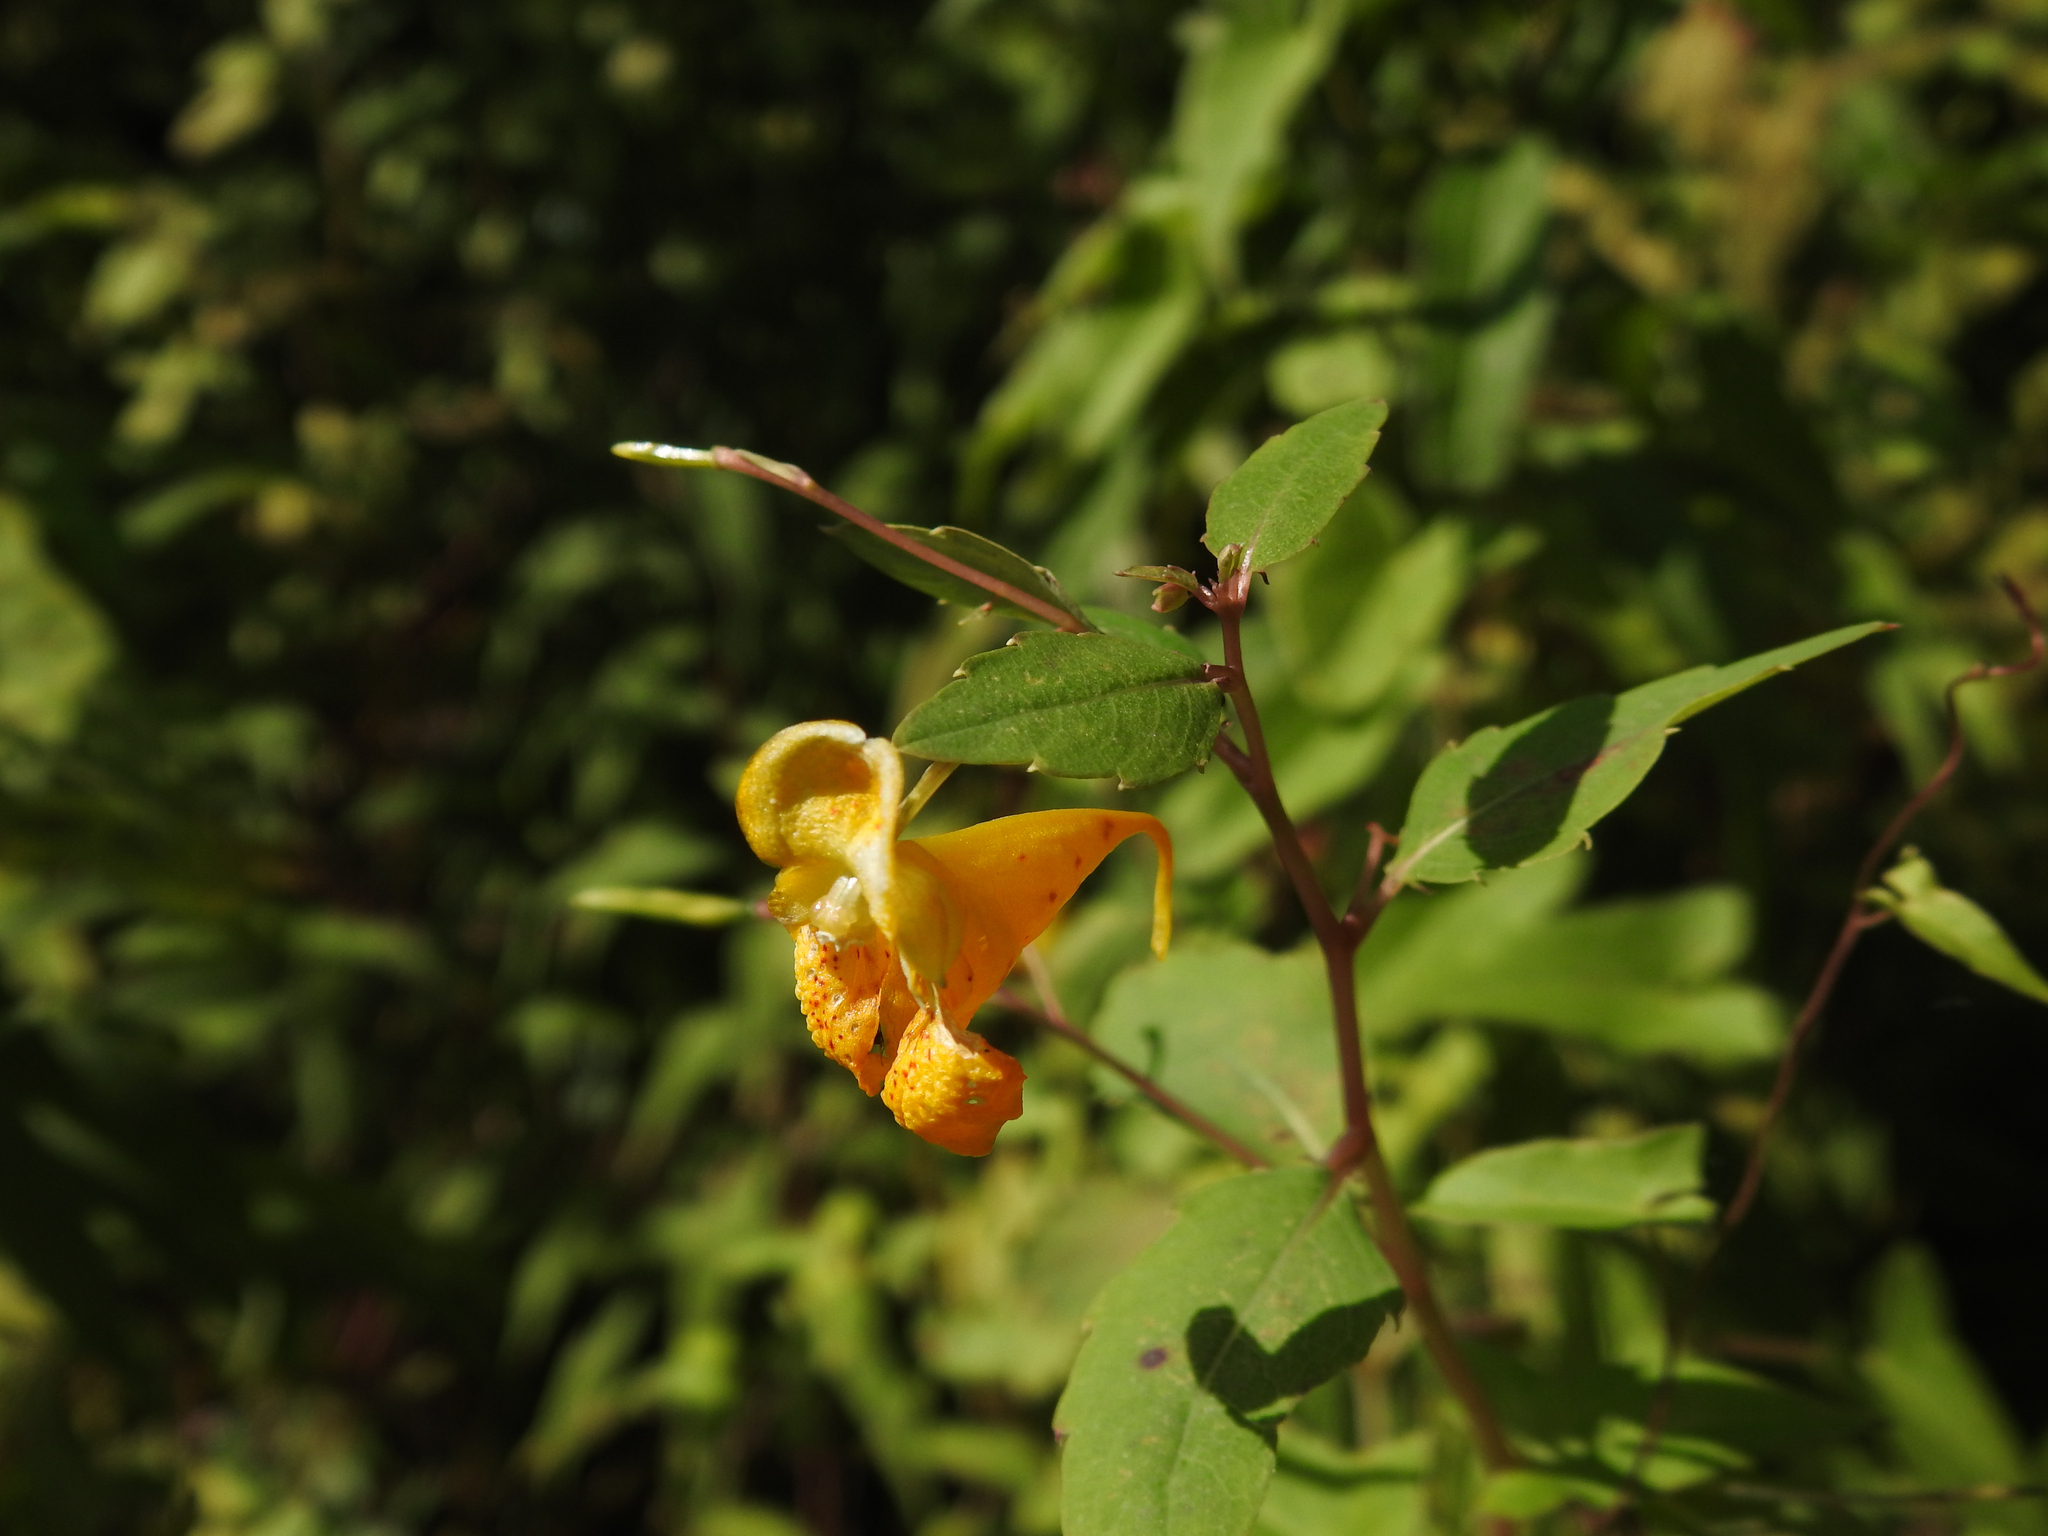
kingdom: Plantae
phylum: Tracheophyta
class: Magnoliopsida
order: Ericales
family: Balsaminaceae
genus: Impatiens
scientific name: Impatiens capensis
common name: Orange balsam
